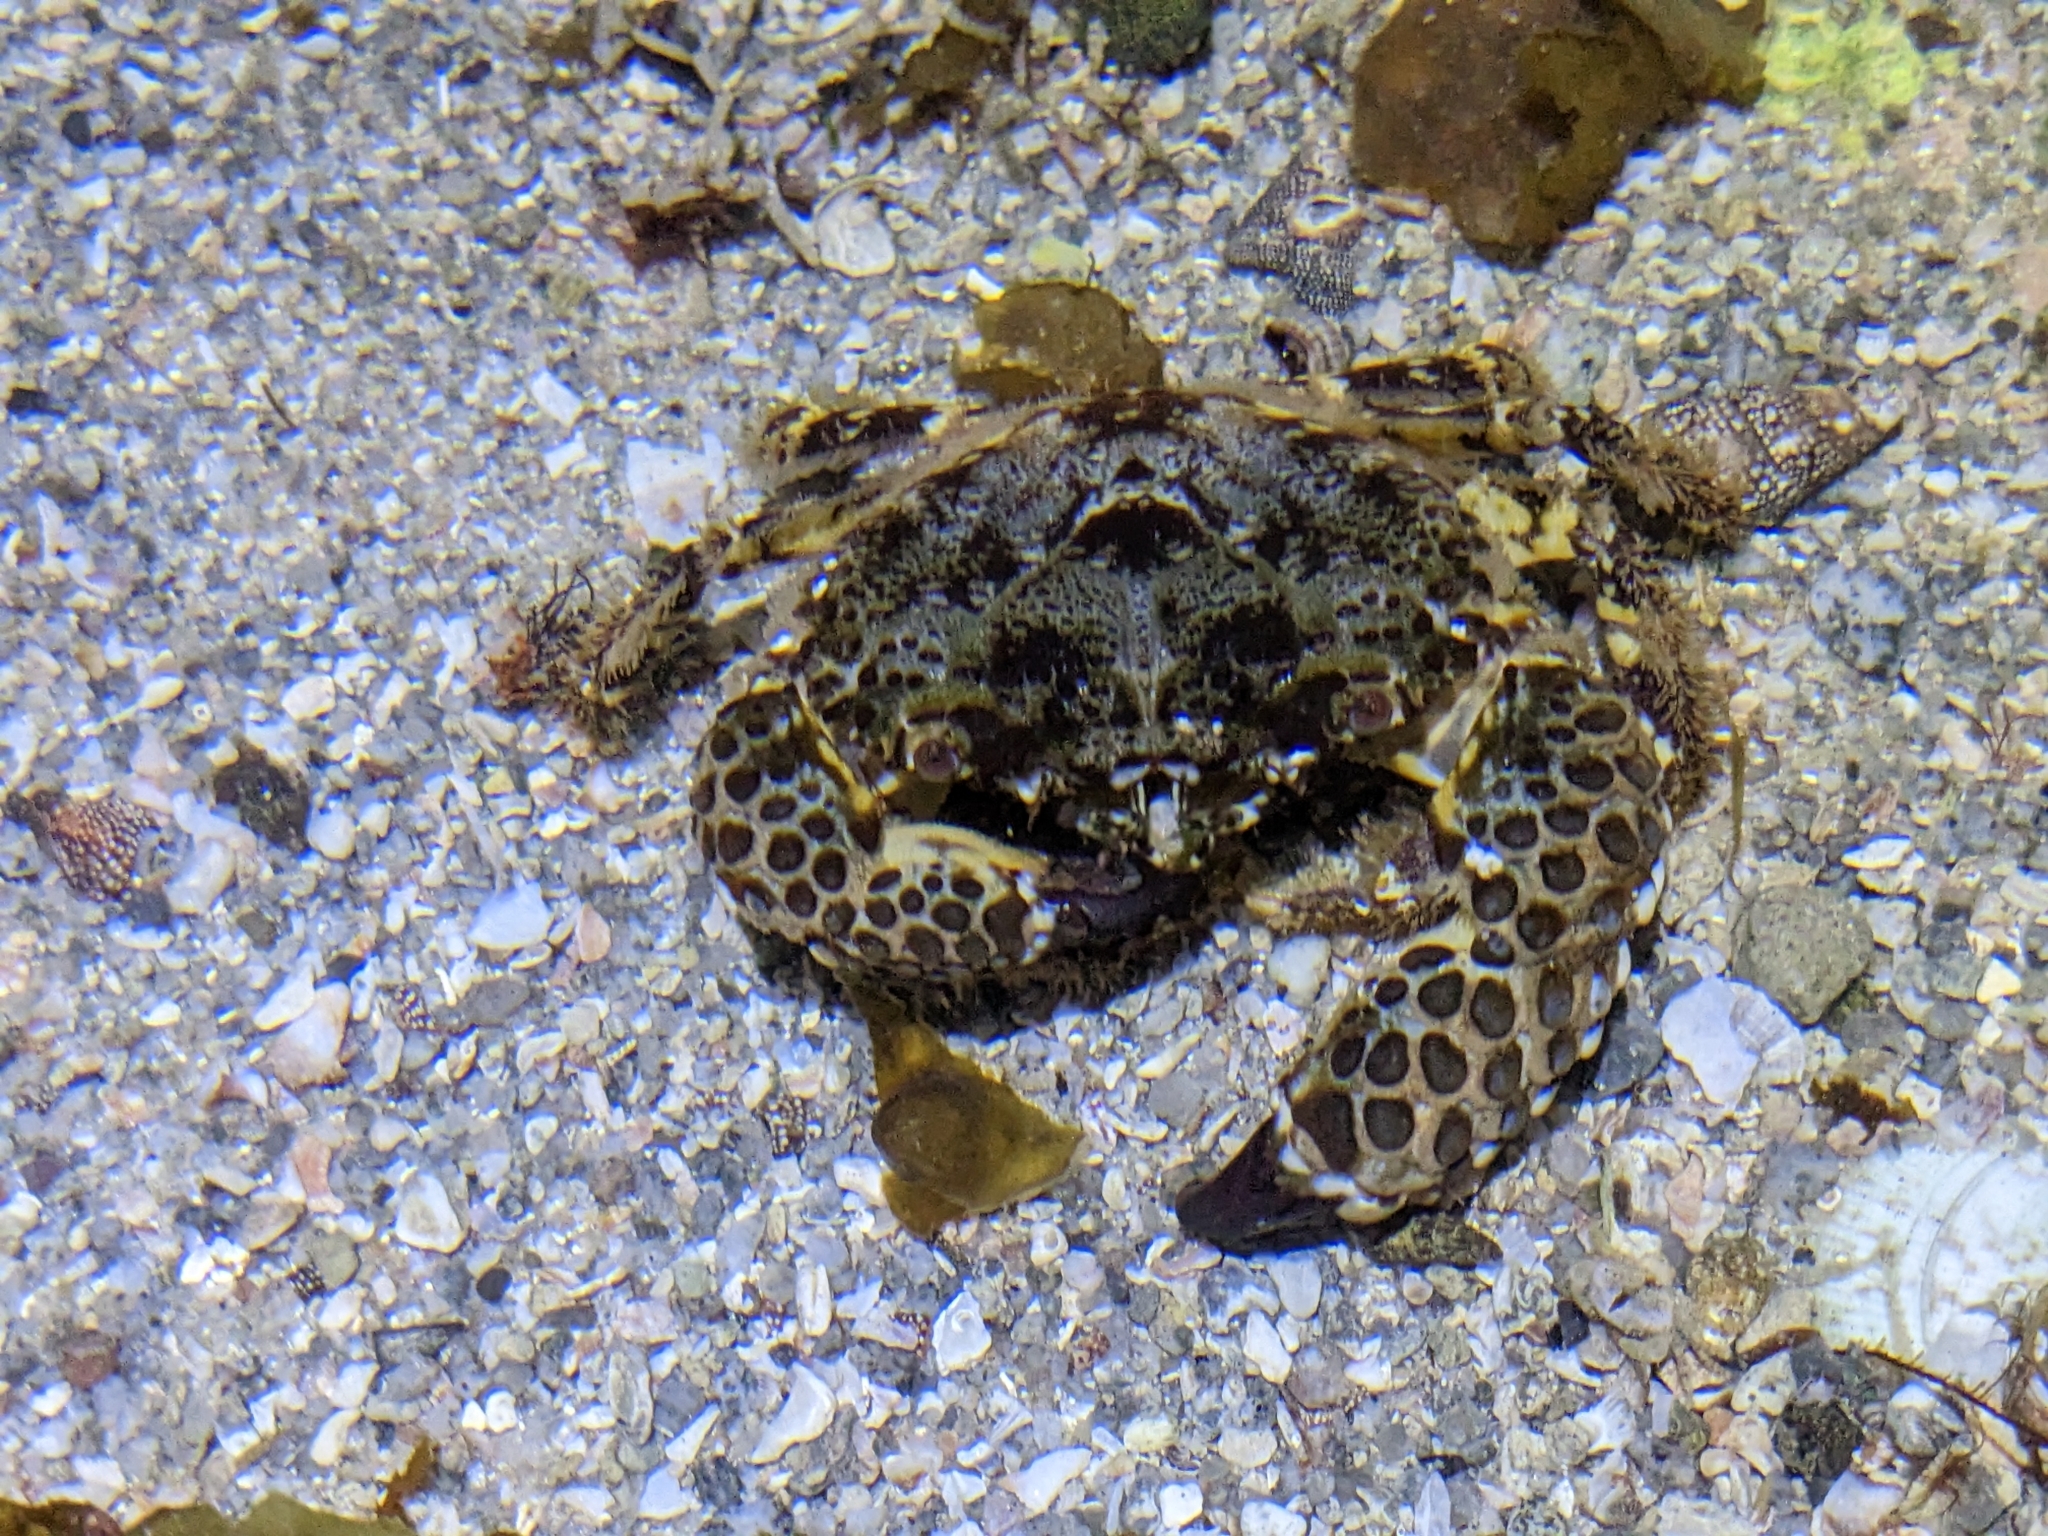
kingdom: Animalia
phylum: Arthropoda
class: Malacostraca
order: Decapoda
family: Eriphiidae
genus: Eriphia
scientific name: Eriphia squamata
